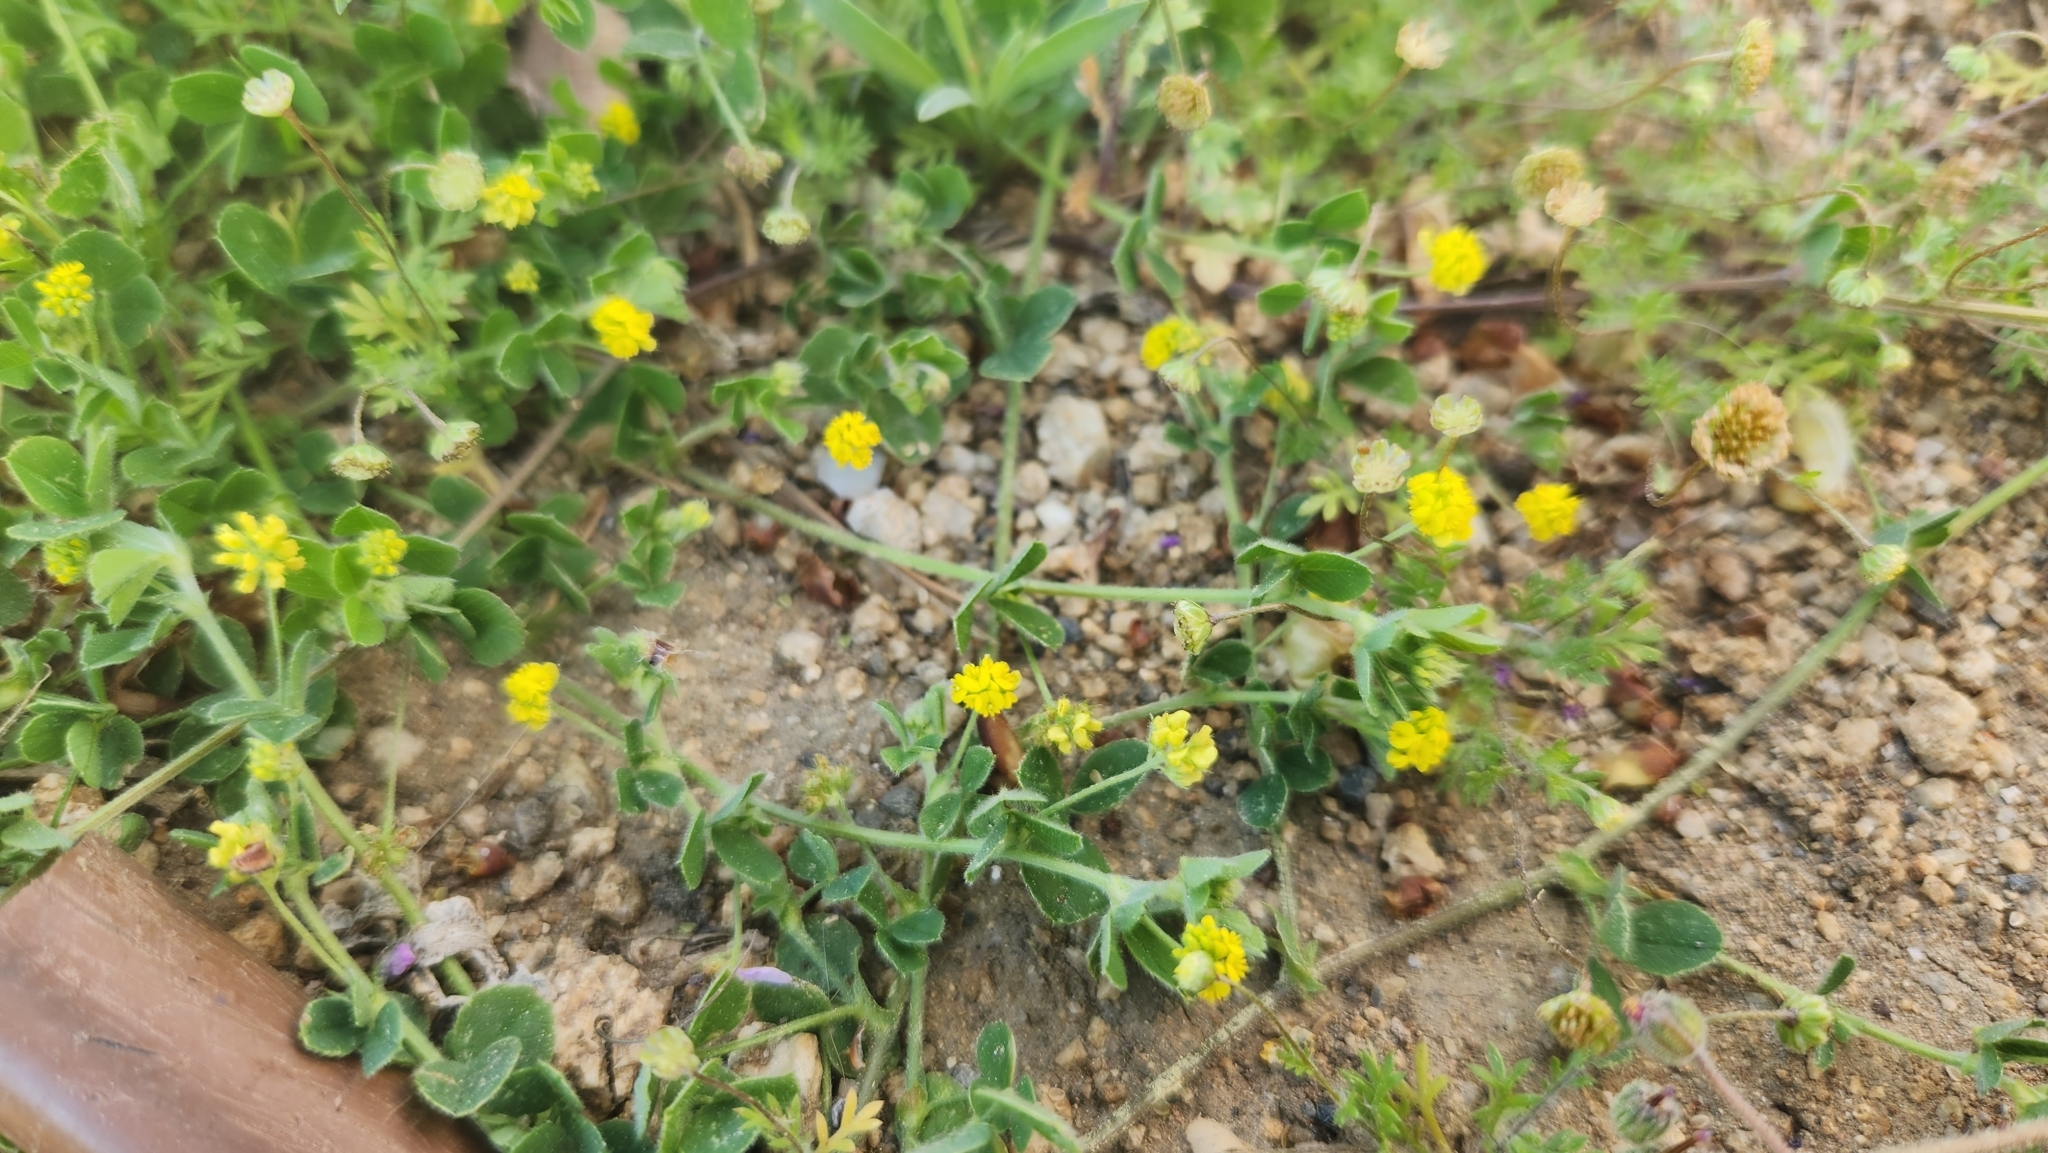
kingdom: Plantae
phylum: Tracheophyta
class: Magnoliopsida
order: Fabales
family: Fabaceae
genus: Medicago
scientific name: Medicago lupulina
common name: Black medick
